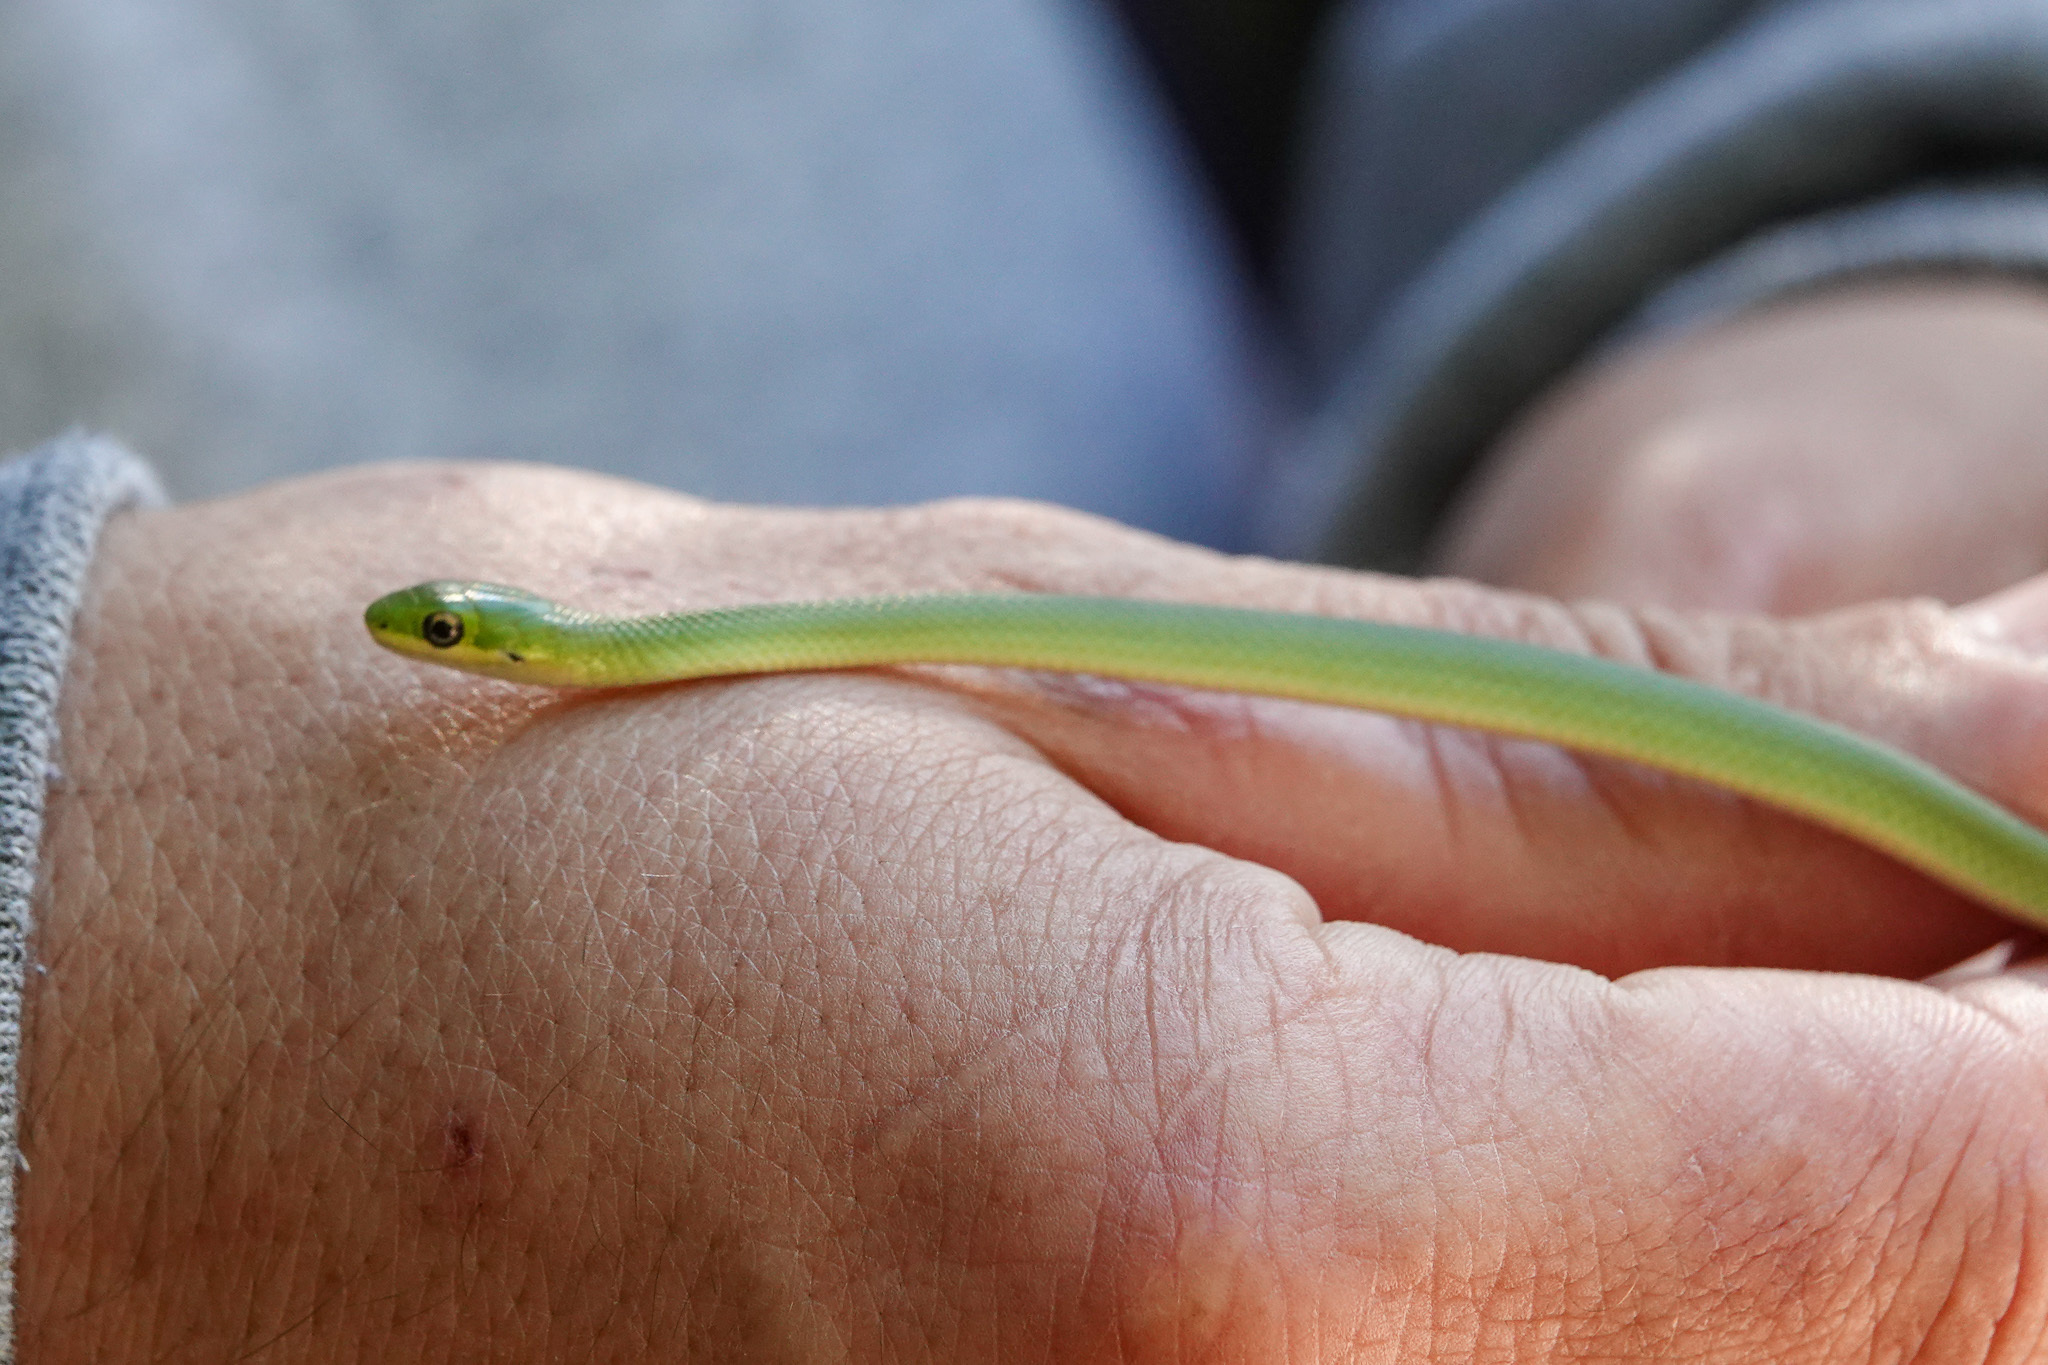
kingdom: Animalia
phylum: Chordata
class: Squamata
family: Colubridae
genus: Opheodrys
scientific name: Opheodrys aestivus
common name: Rough greensnake
